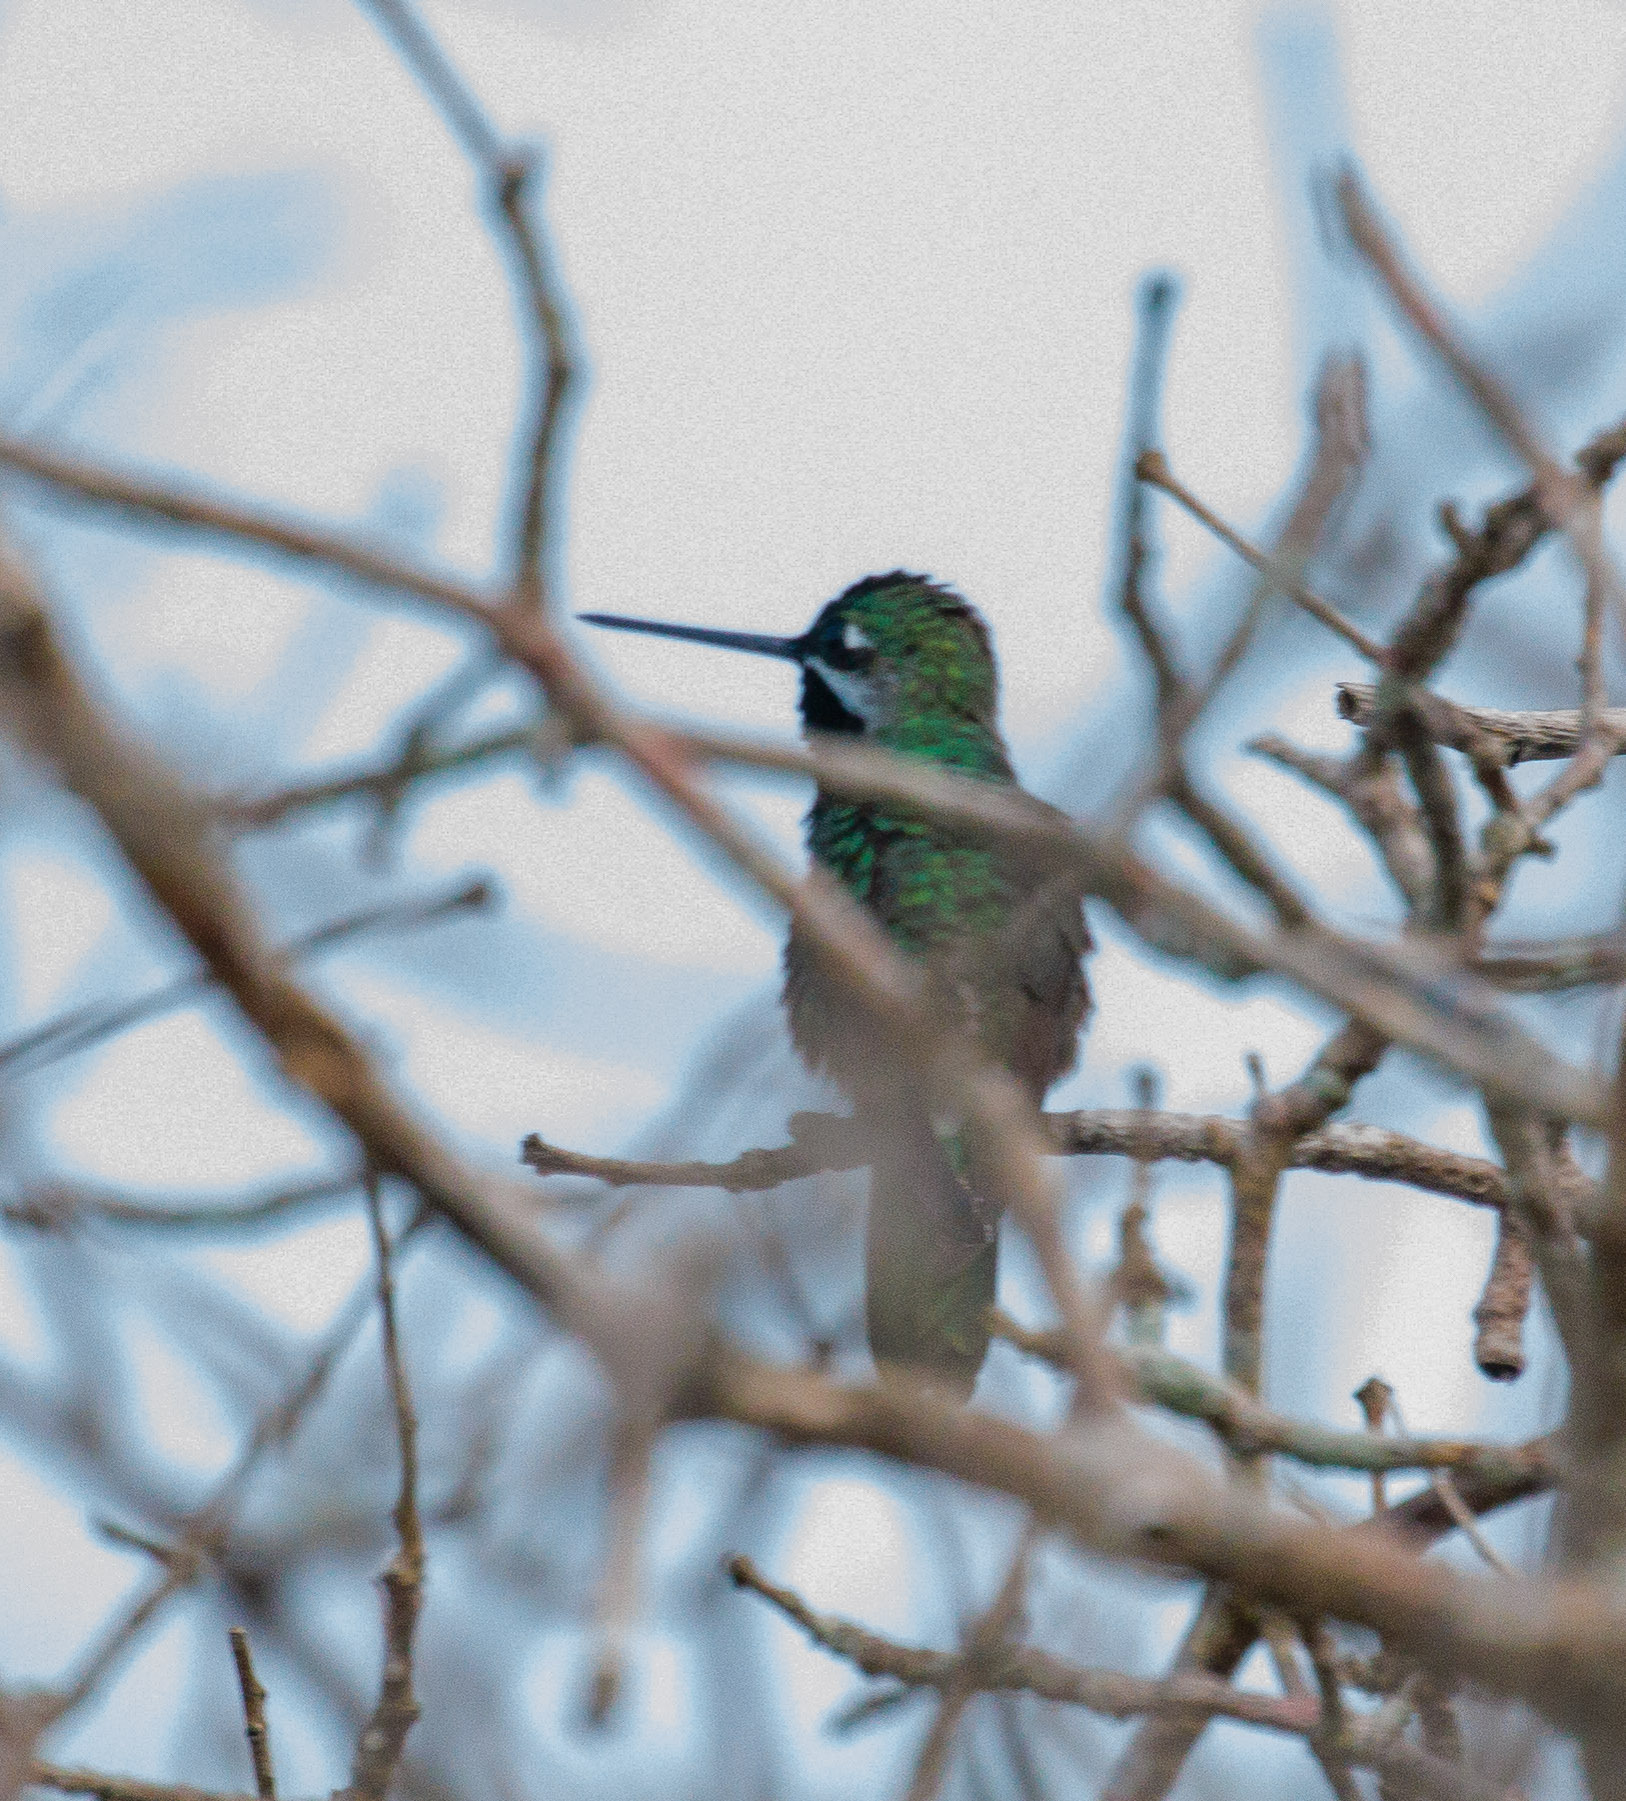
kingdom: Animalia
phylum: Chordata
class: Aves
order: Apodiformes
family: Trochilidae
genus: Heliomaster
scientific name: Heliomaster squamosus
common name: Stripe-breasted starthroat
